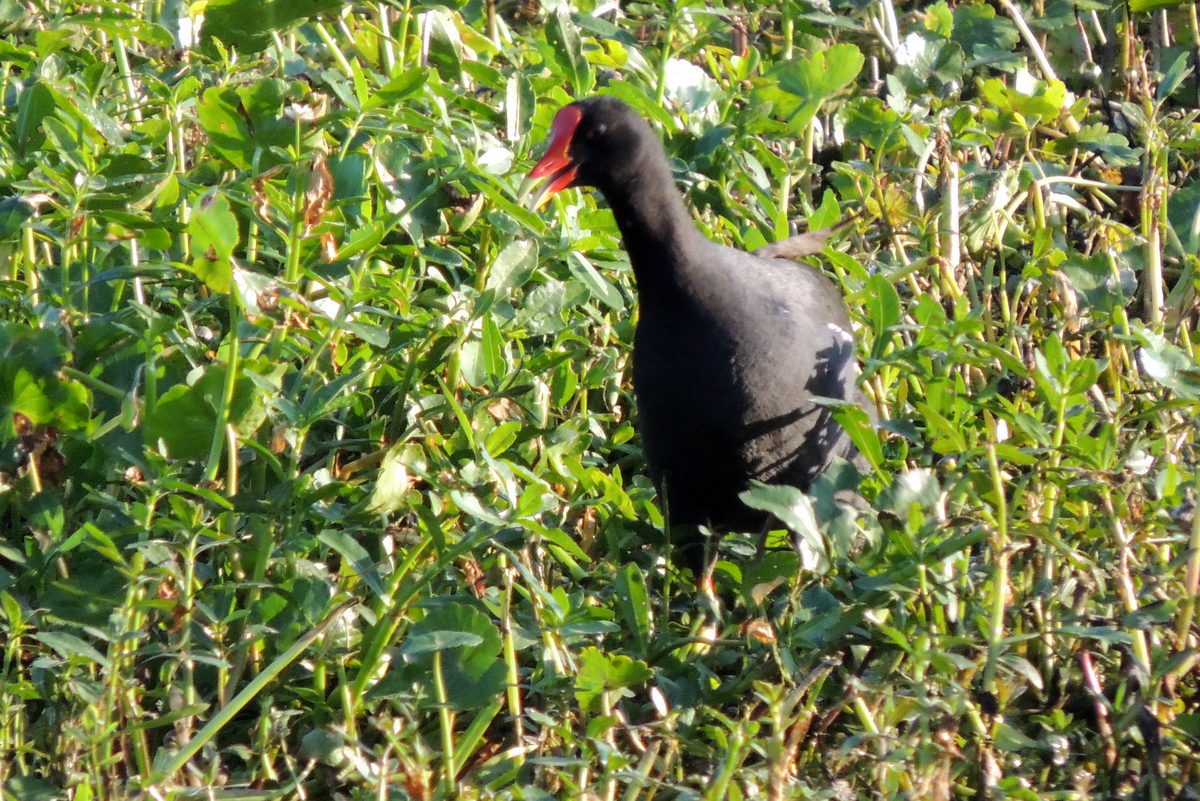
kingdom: Animalia
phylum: Chordata
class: Aves
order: Gruiformes
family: Rallidae
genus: Gallinula
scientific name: Gallinula chloropus
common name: Common moorhen
